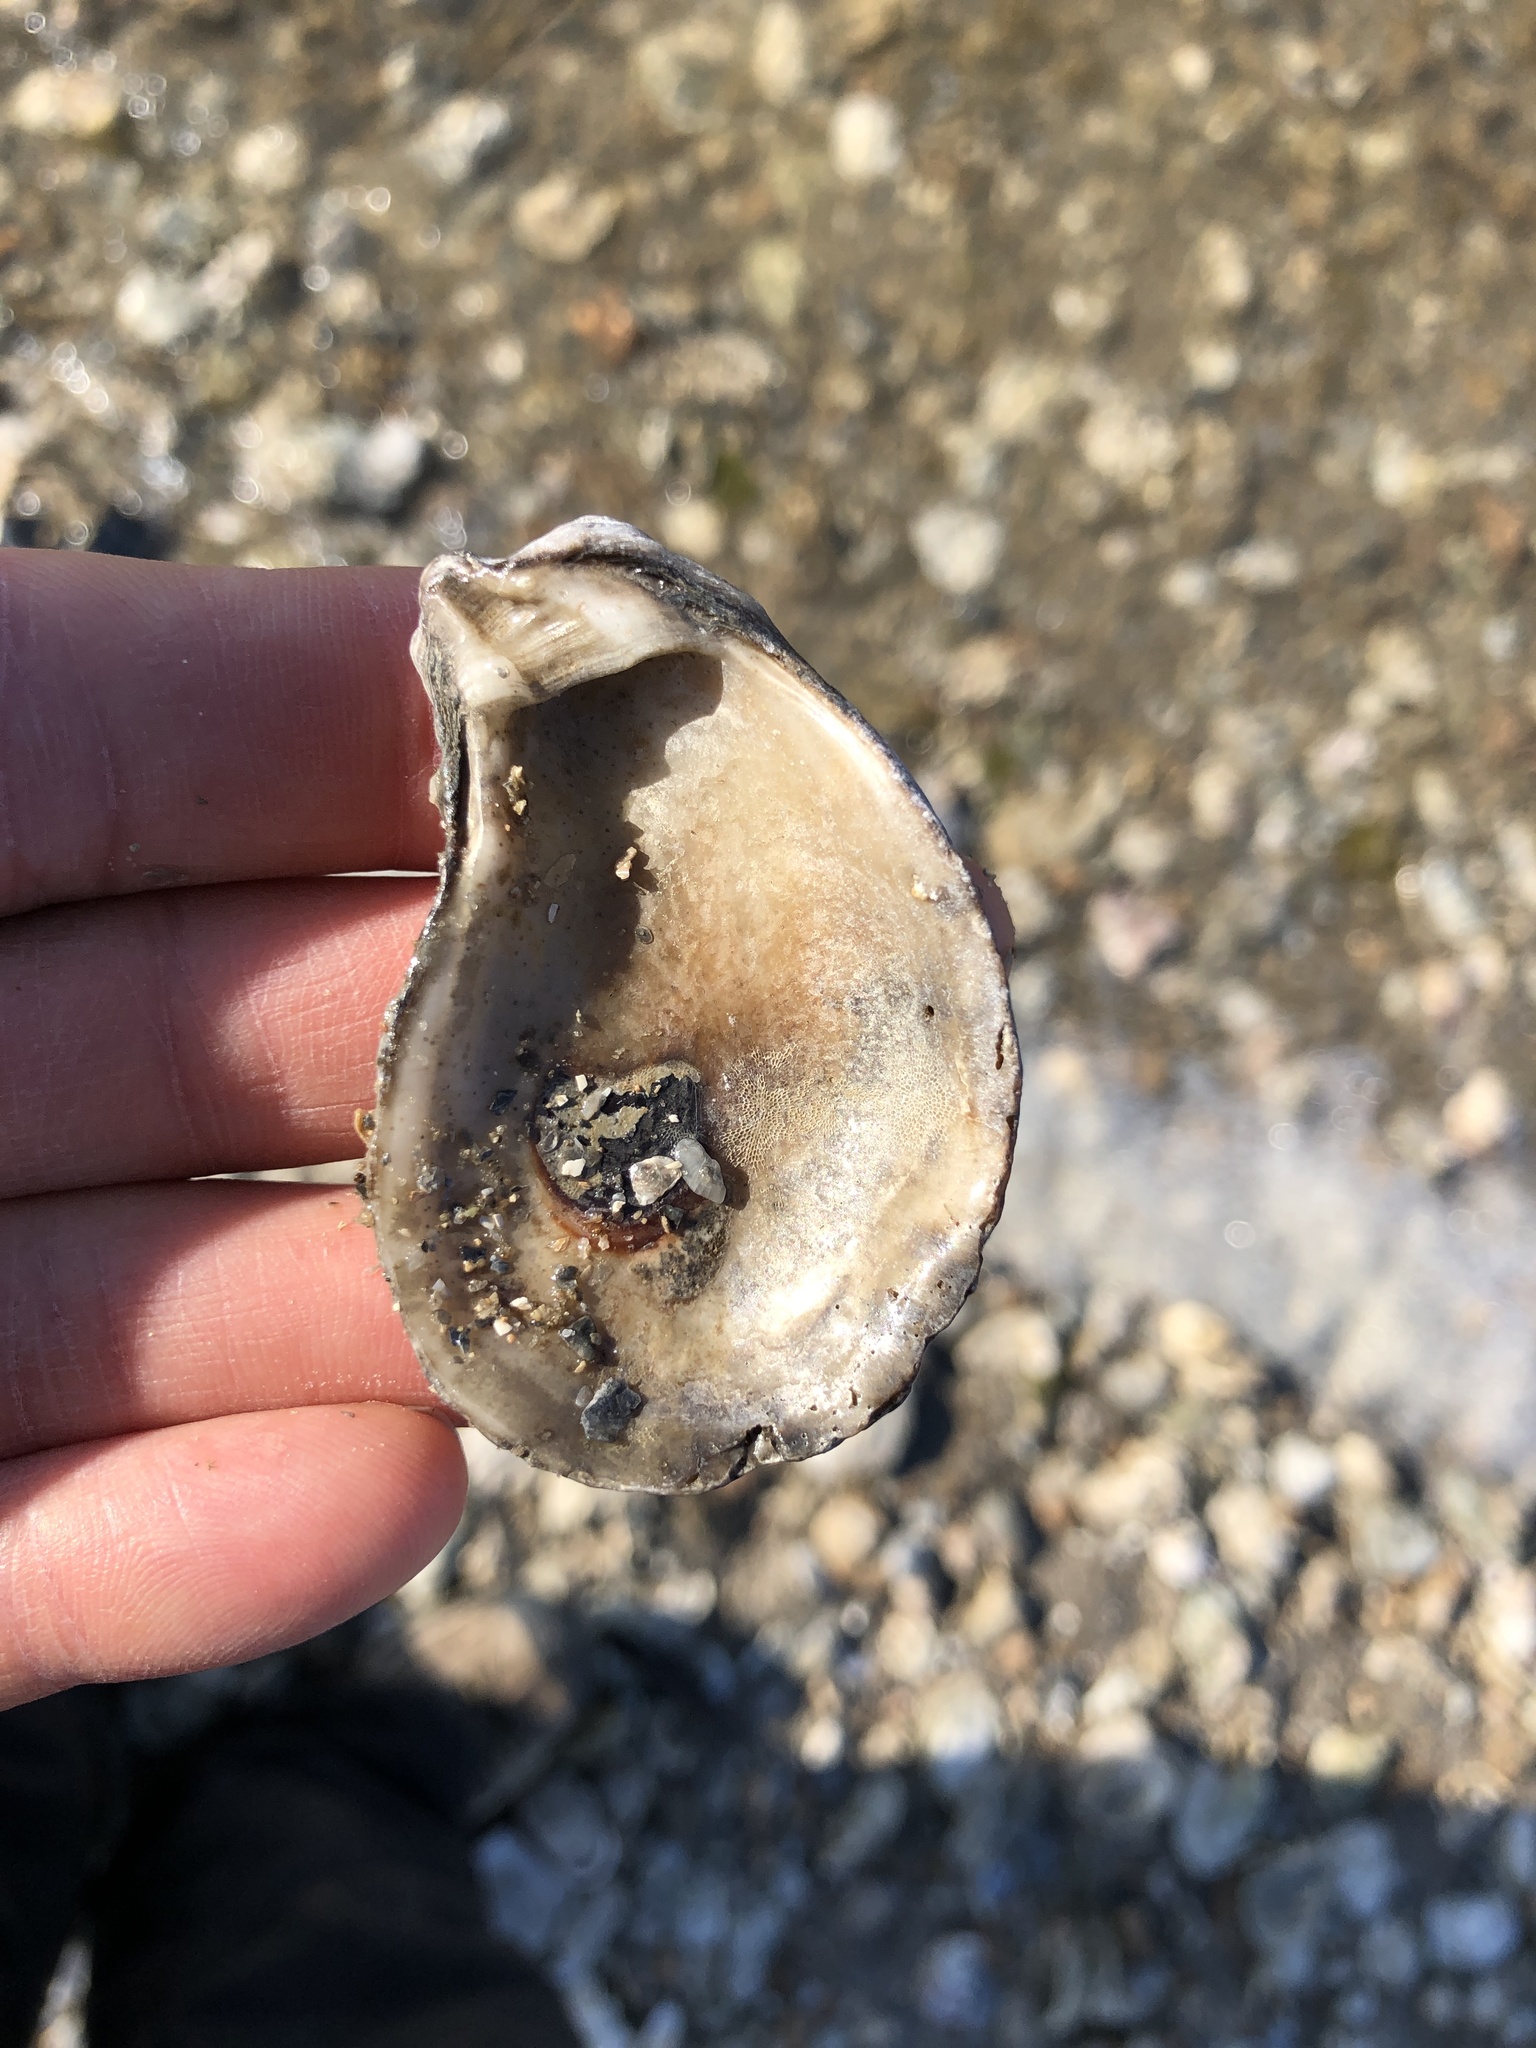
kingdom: Animalia
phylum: Mollusca
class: Bivalvia
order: Ostreida
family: Ostreidae
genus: Crassostrea
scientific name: Crassostrea virginica
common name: American oyster
